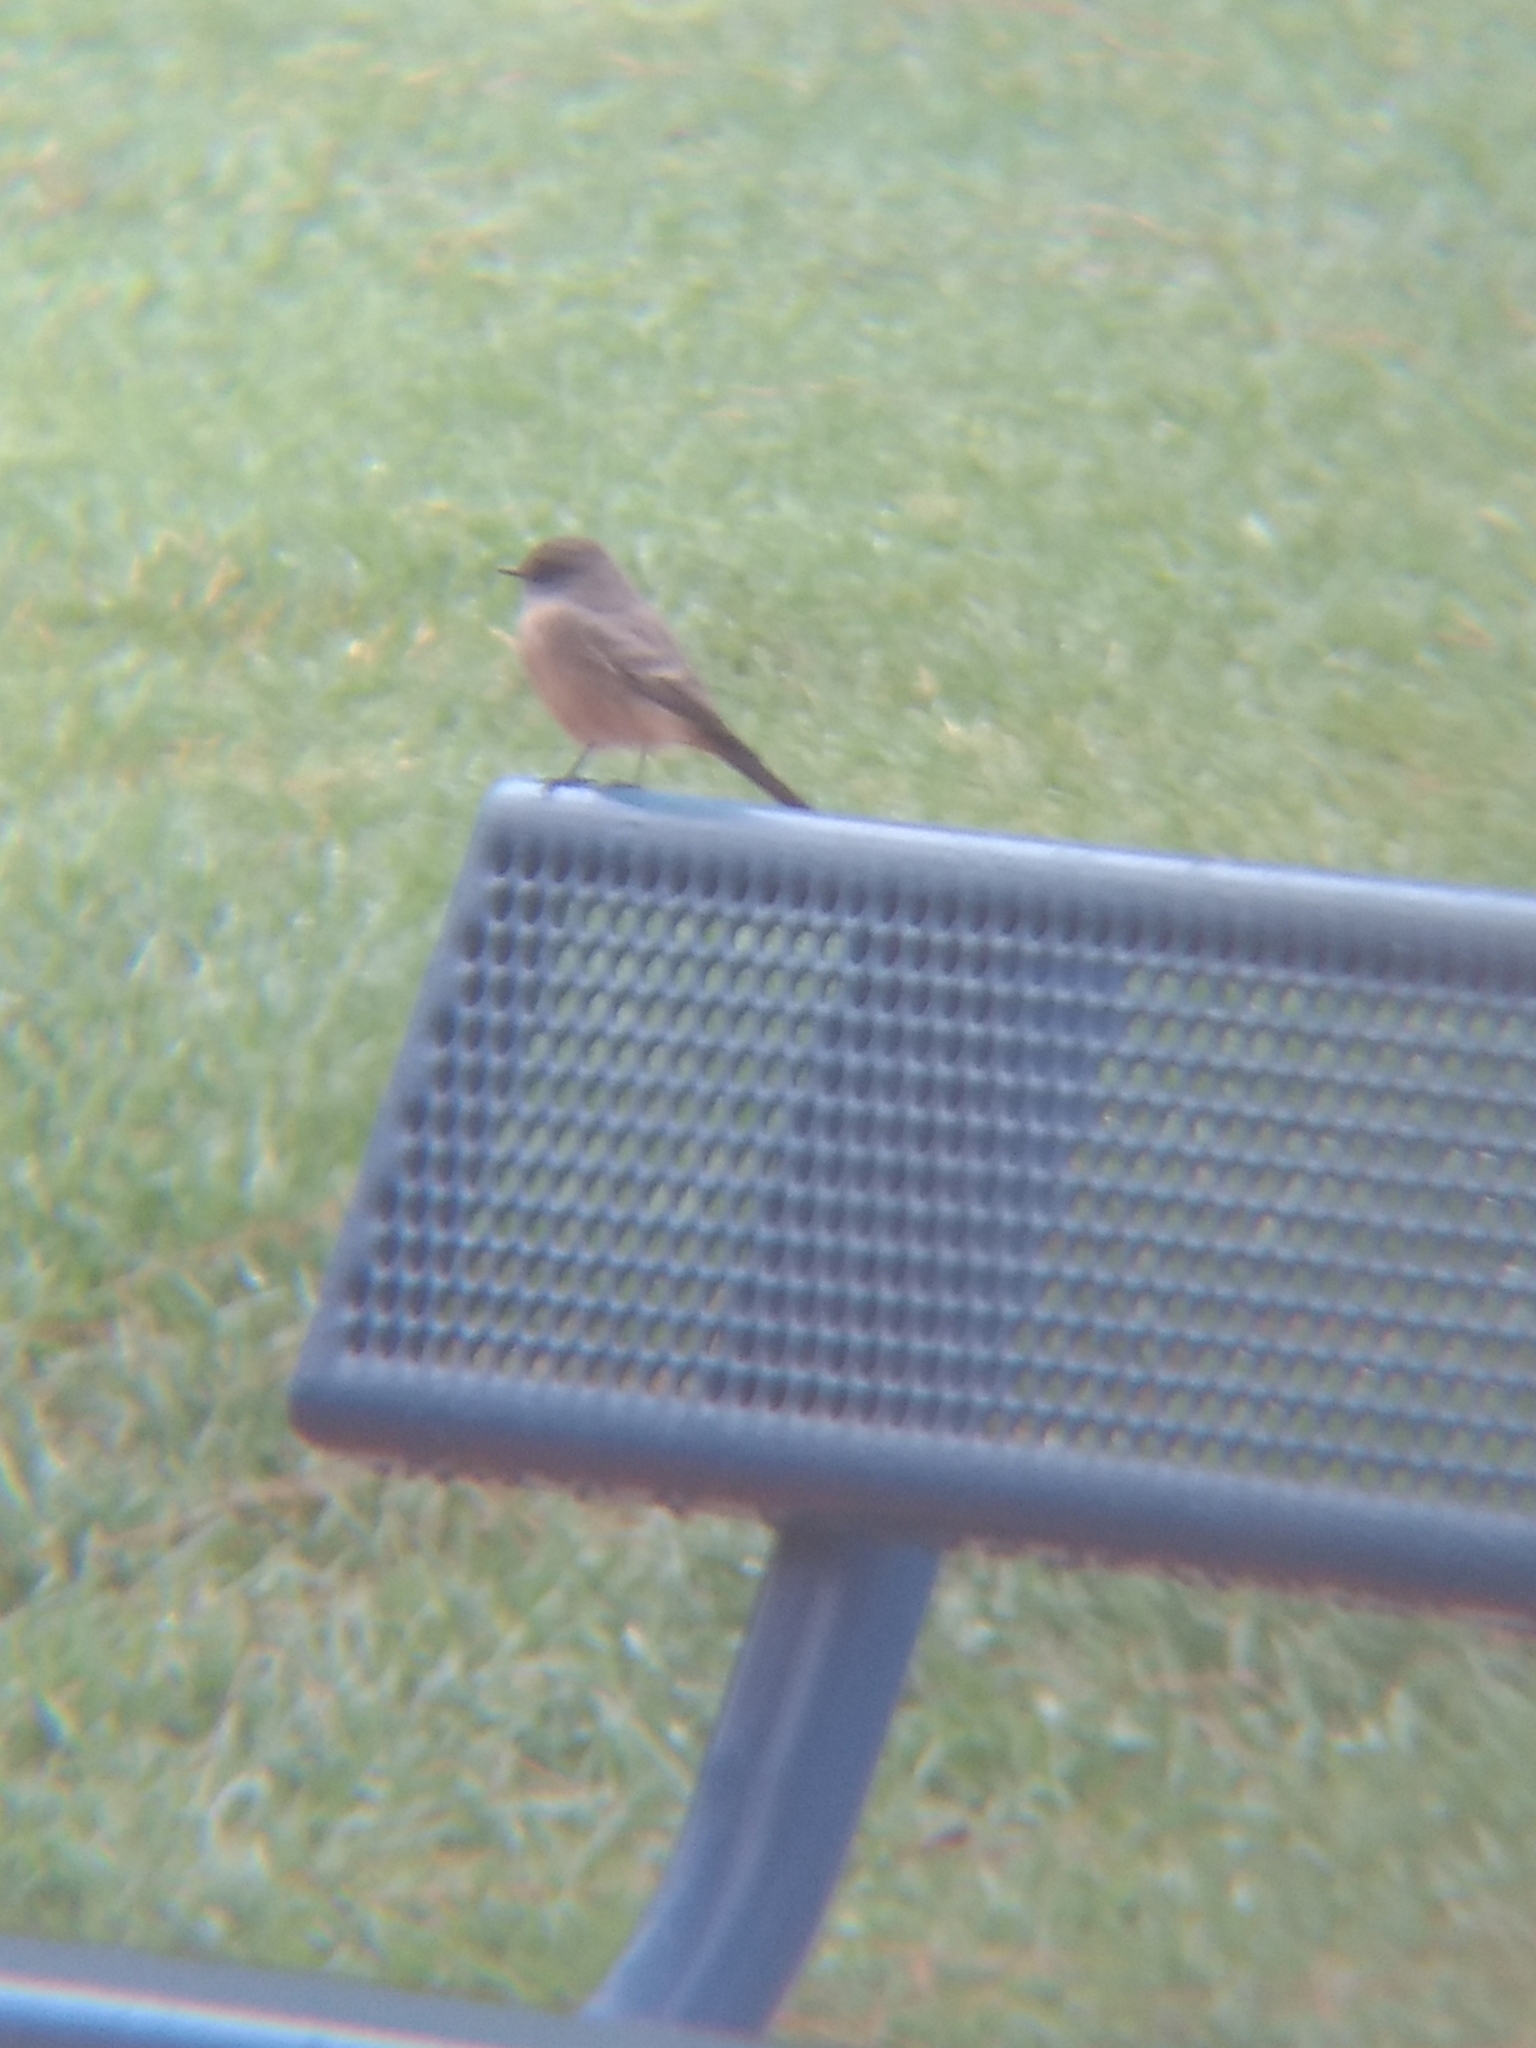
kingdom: Animalia
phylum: Chordata
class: Aves
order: Passeriformes
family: Tyrannidae
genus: Sayornis
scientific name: Sayornis saya
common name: Say's phoebe
